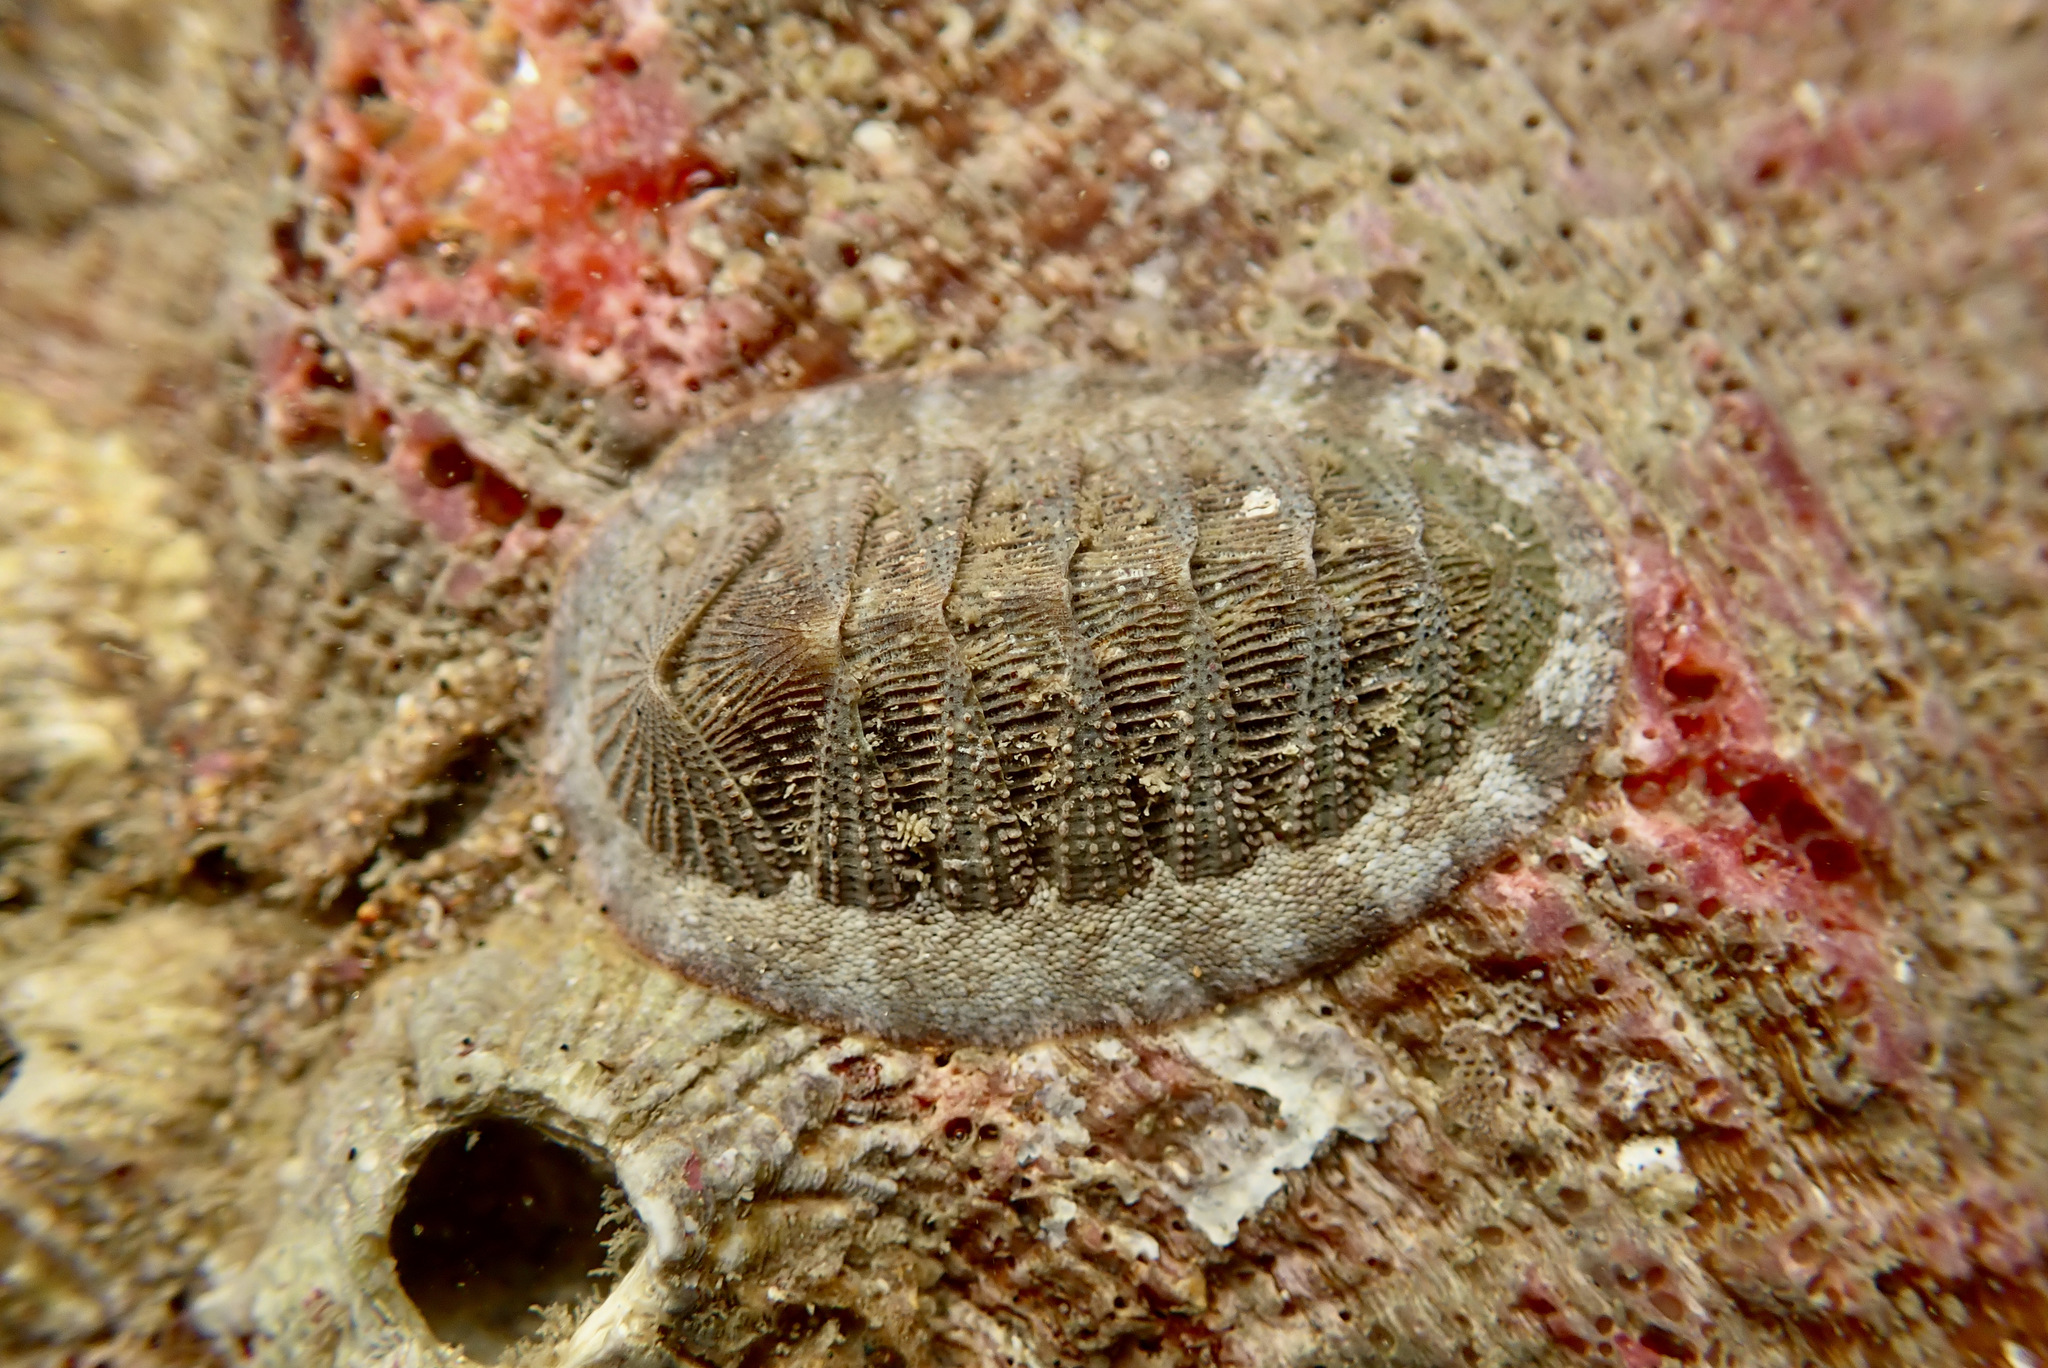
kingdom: Animalia
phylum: Mollusca
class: Polyplacophora
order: Chitonida
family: Ischnochitonidae
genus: Lepidozona
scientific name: Lepidozona cooperi
